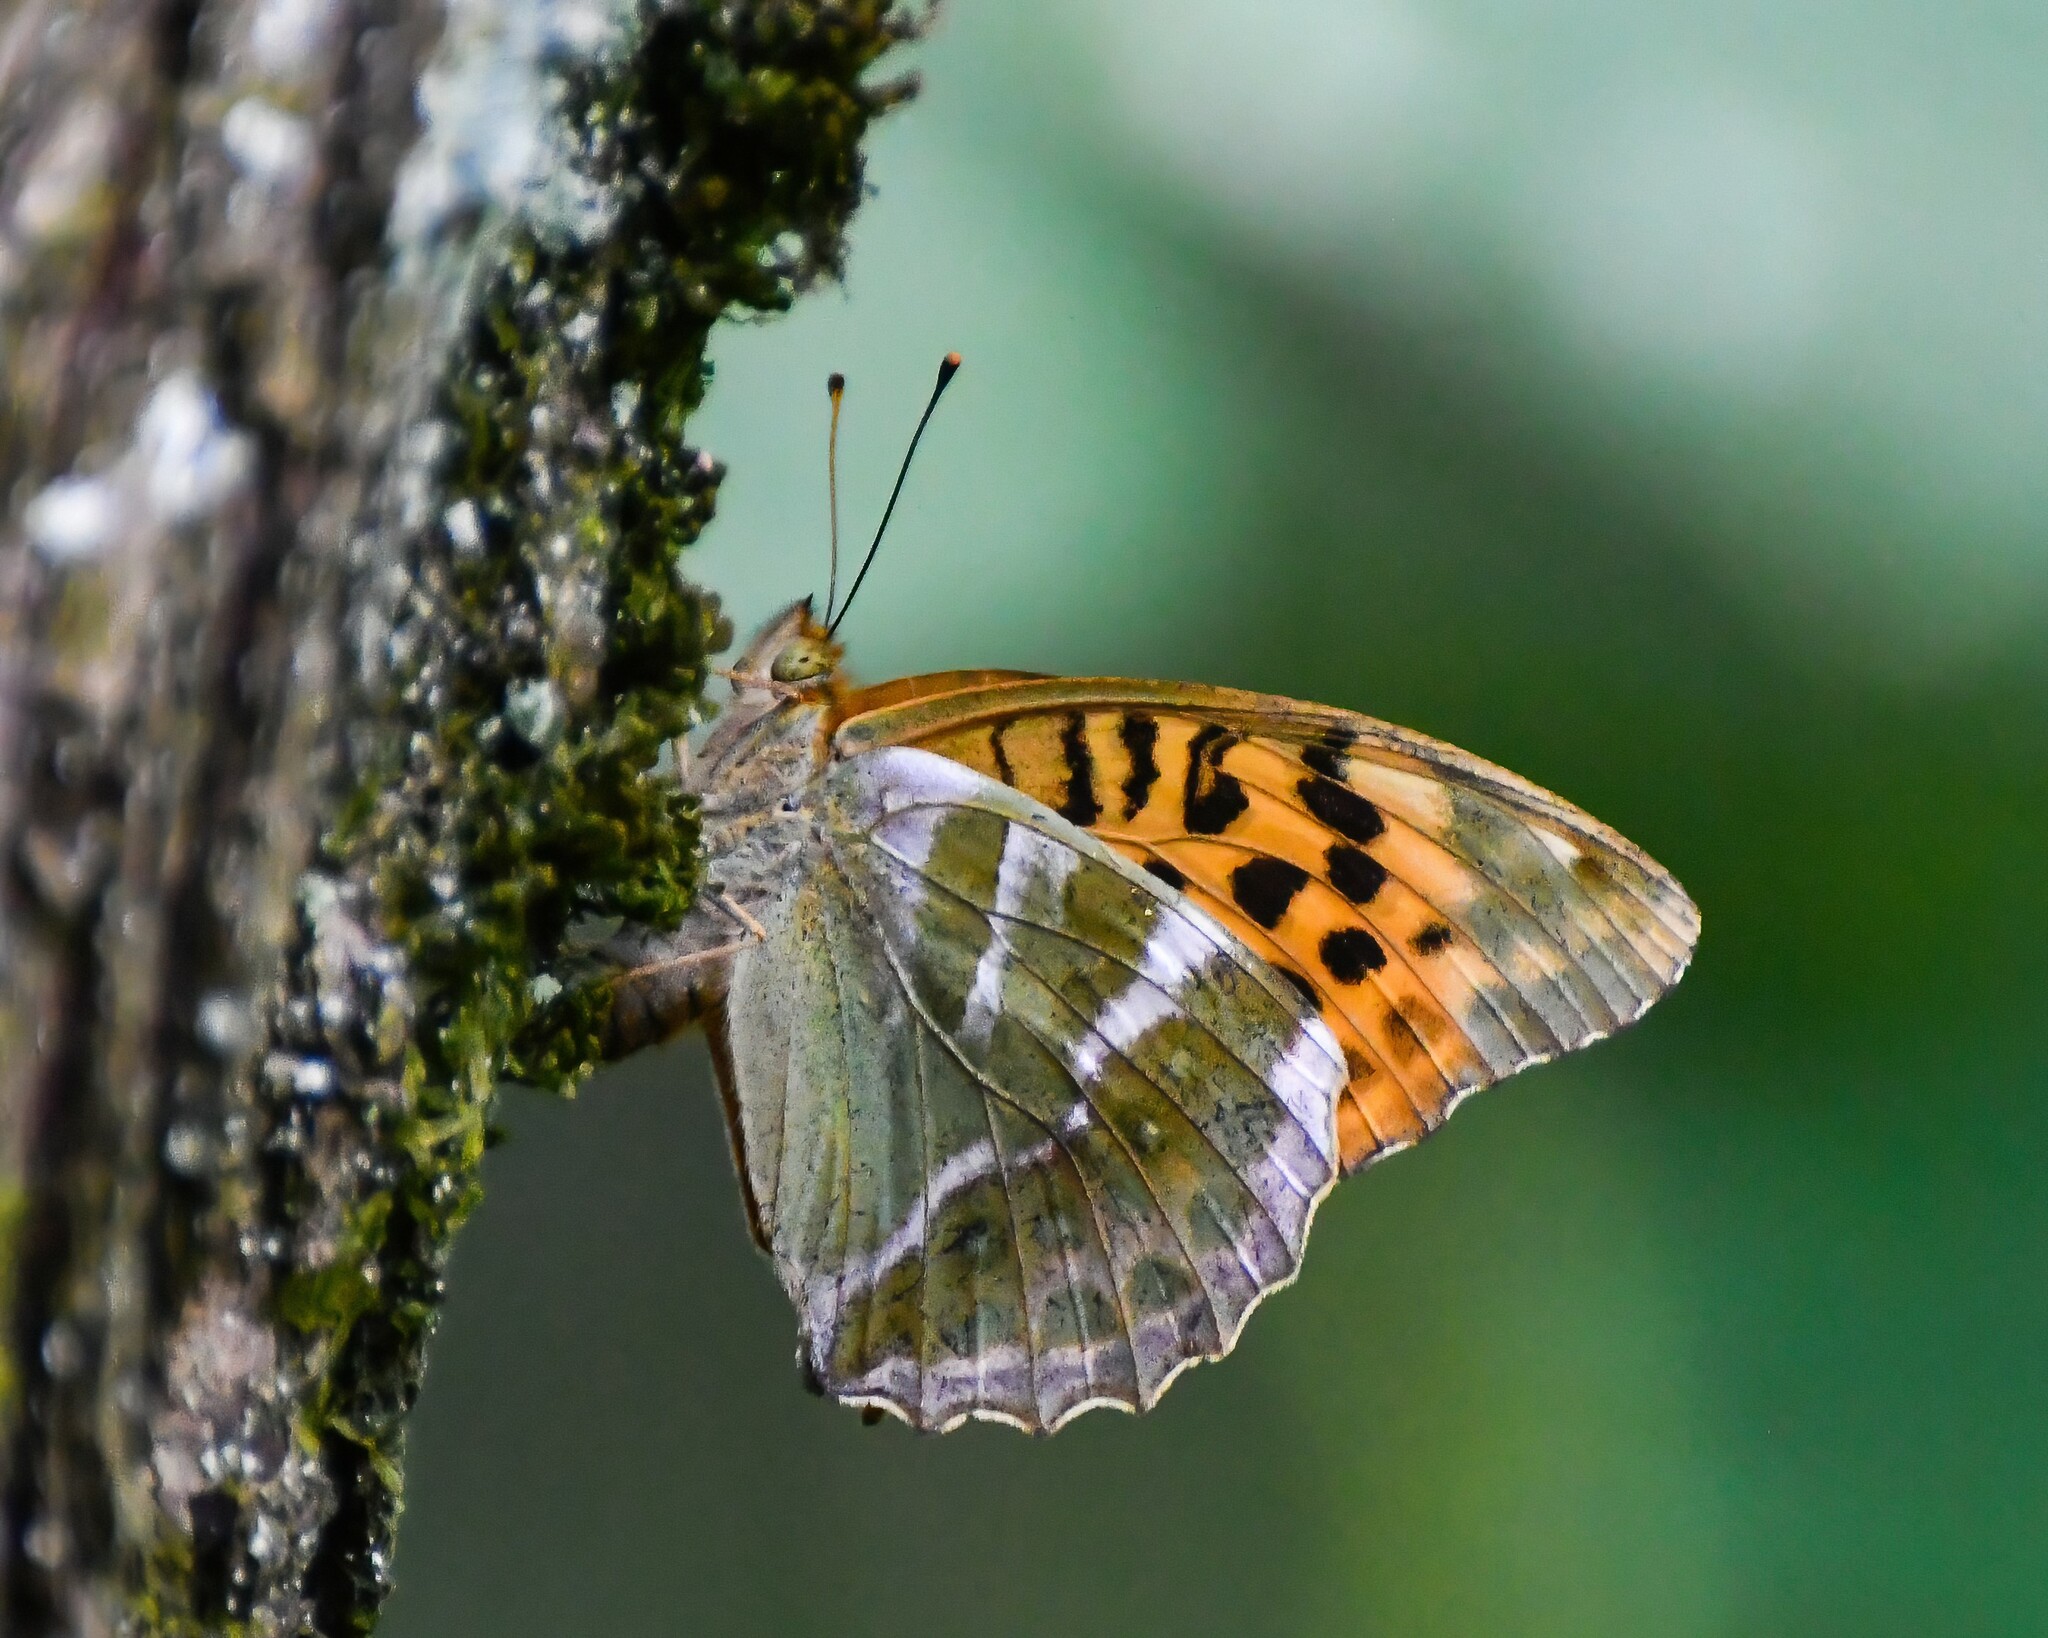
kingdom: Animalia
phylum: Arthropoda
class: Insecta
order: Lepidoptera
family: Nymphalidae
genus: Argynnis
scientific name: Argynnis paphia
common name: Silver-washed fritillary
